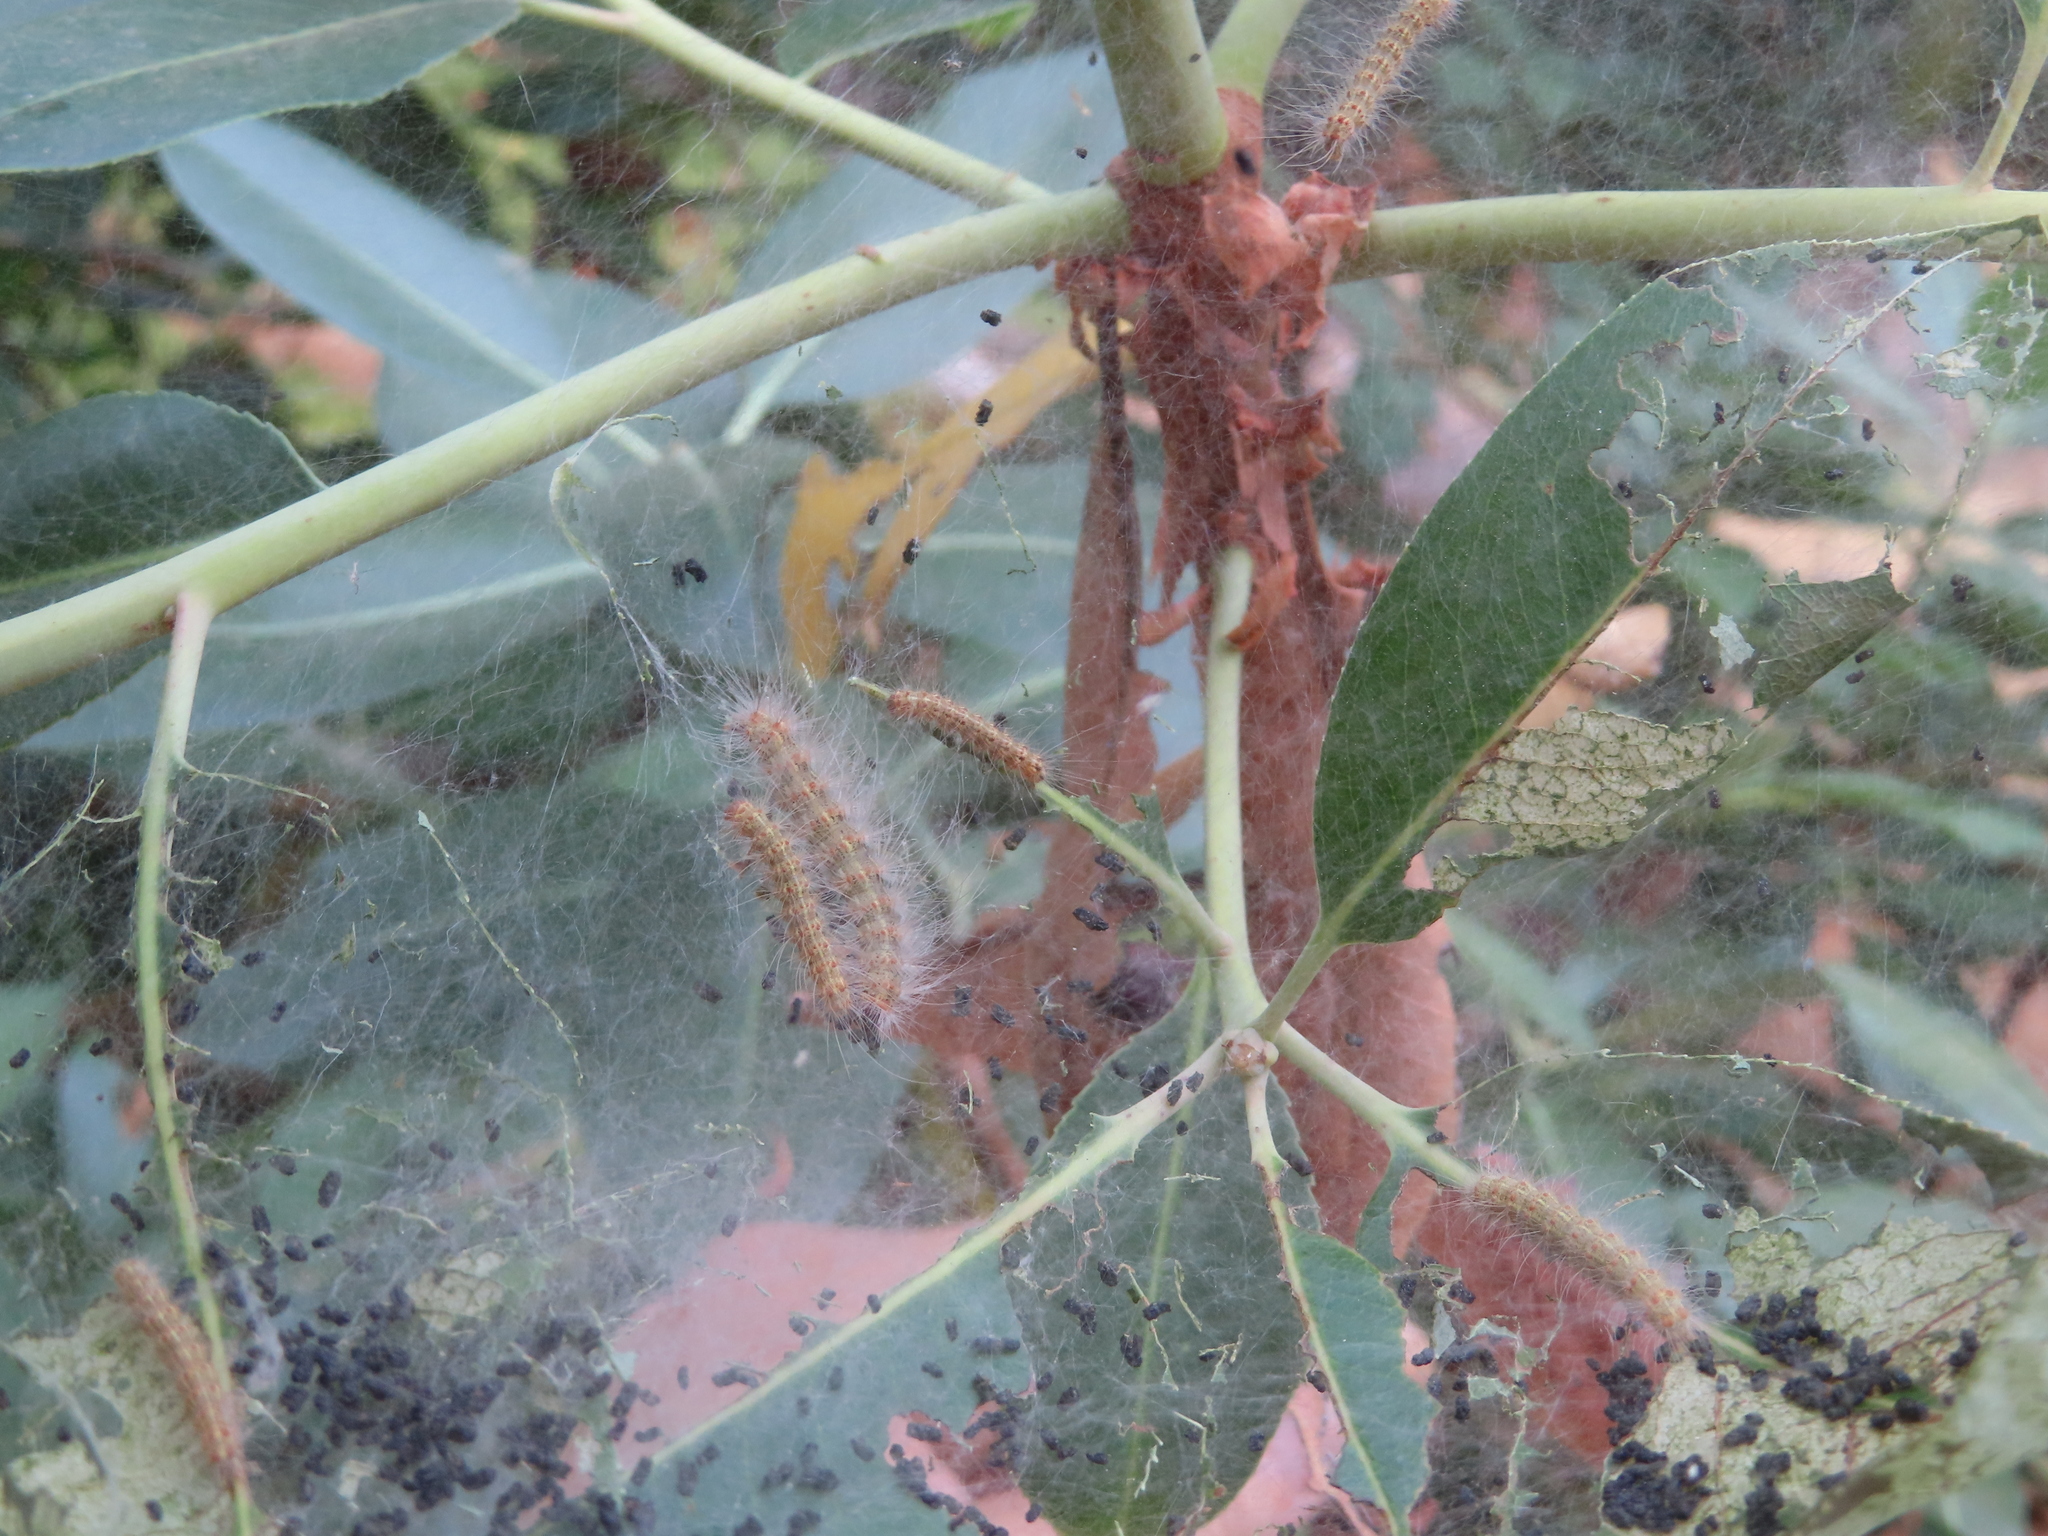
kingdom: Animalia
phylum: Arthropoda
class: Insecta
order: Lepidoptera
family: Erebidae
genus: Hyphantria
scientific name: Hyphantria cunea
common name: American white moth
